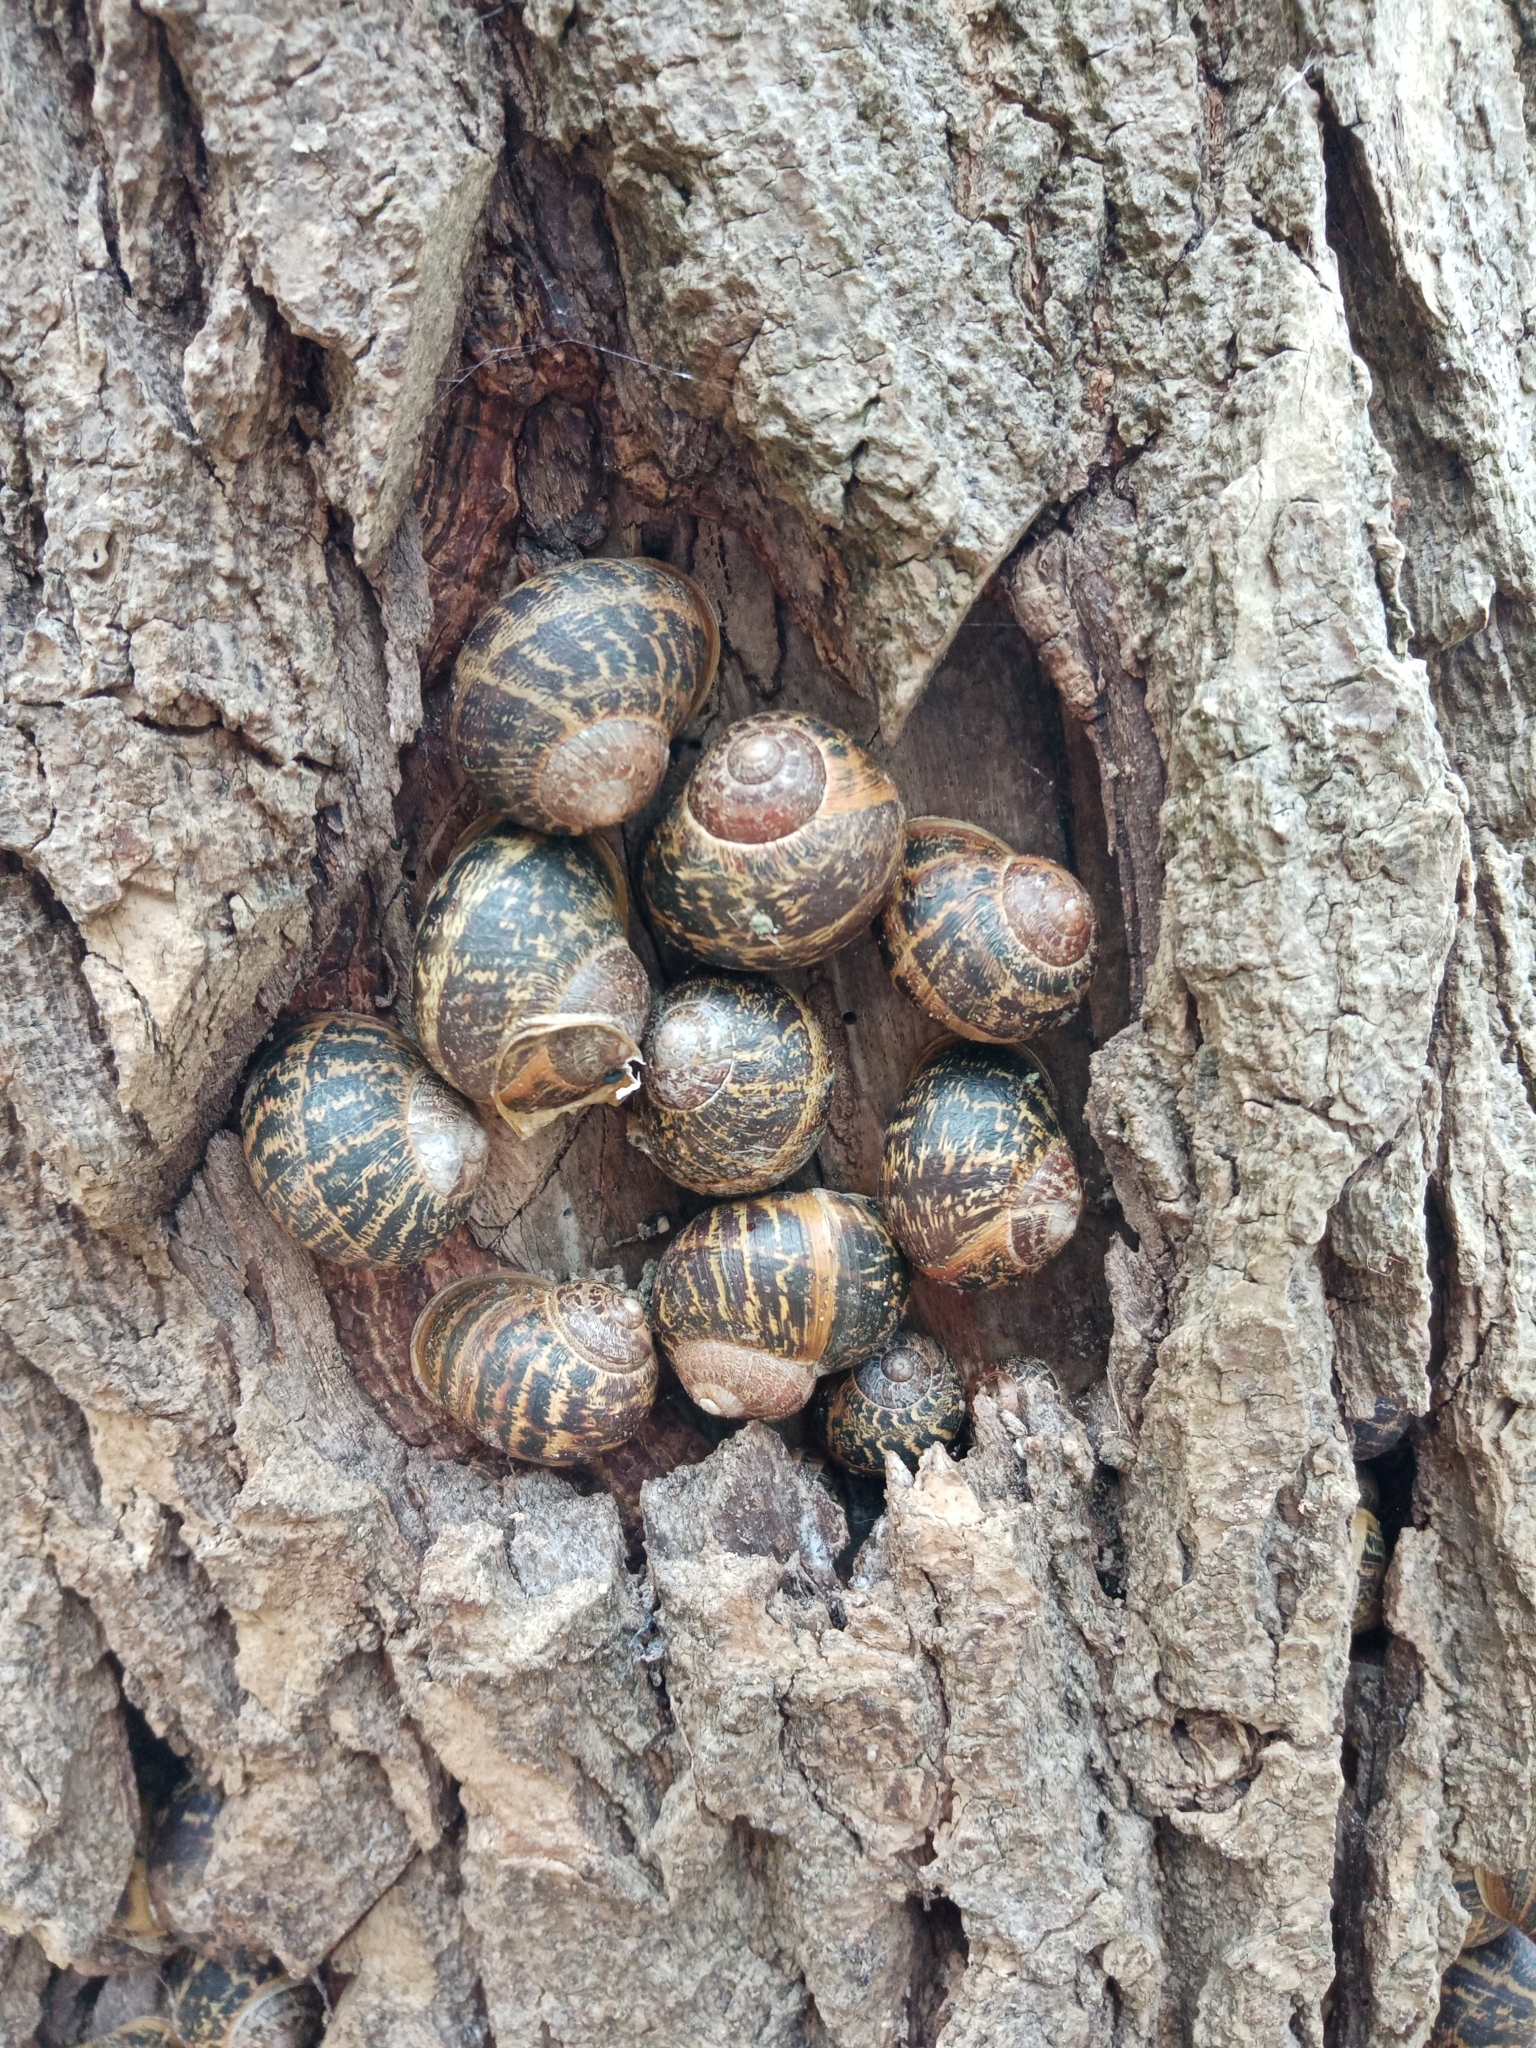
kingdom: Animalia
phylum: Mollusca
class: Gastropoda
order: Stylommatophora
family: Helicidae
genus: Cornu
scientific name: Cornu aspersum
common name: Brown garden snail
